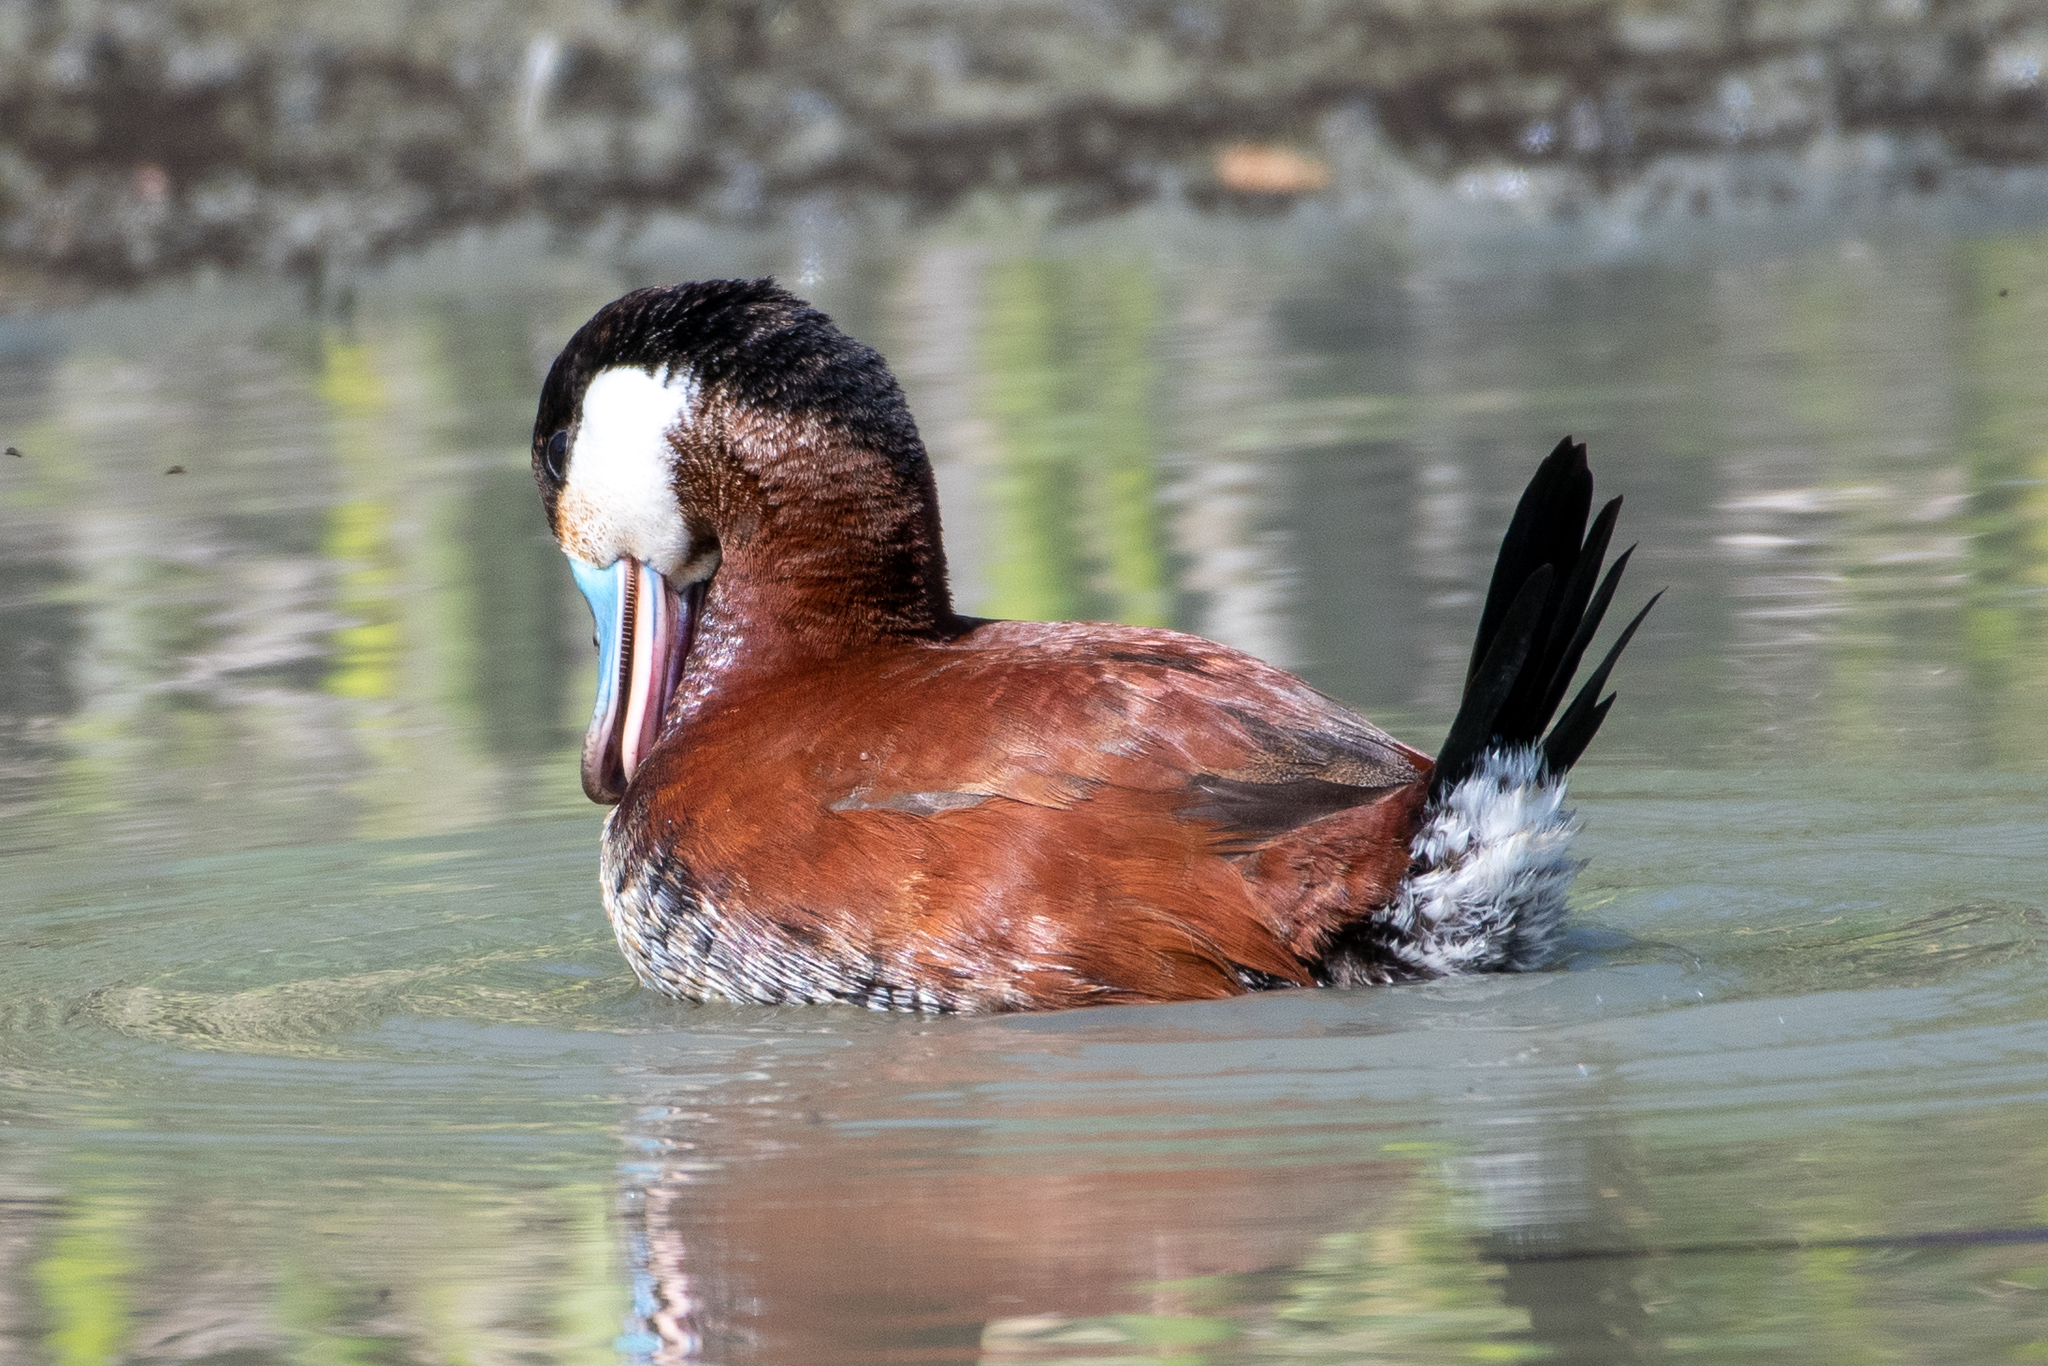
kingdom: Animalia
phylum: Chordata
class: Aves
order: Anseriformes
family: Anatidae
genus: Oxyura
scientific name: Oxyura jamaicensis
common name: Ruddy duck
